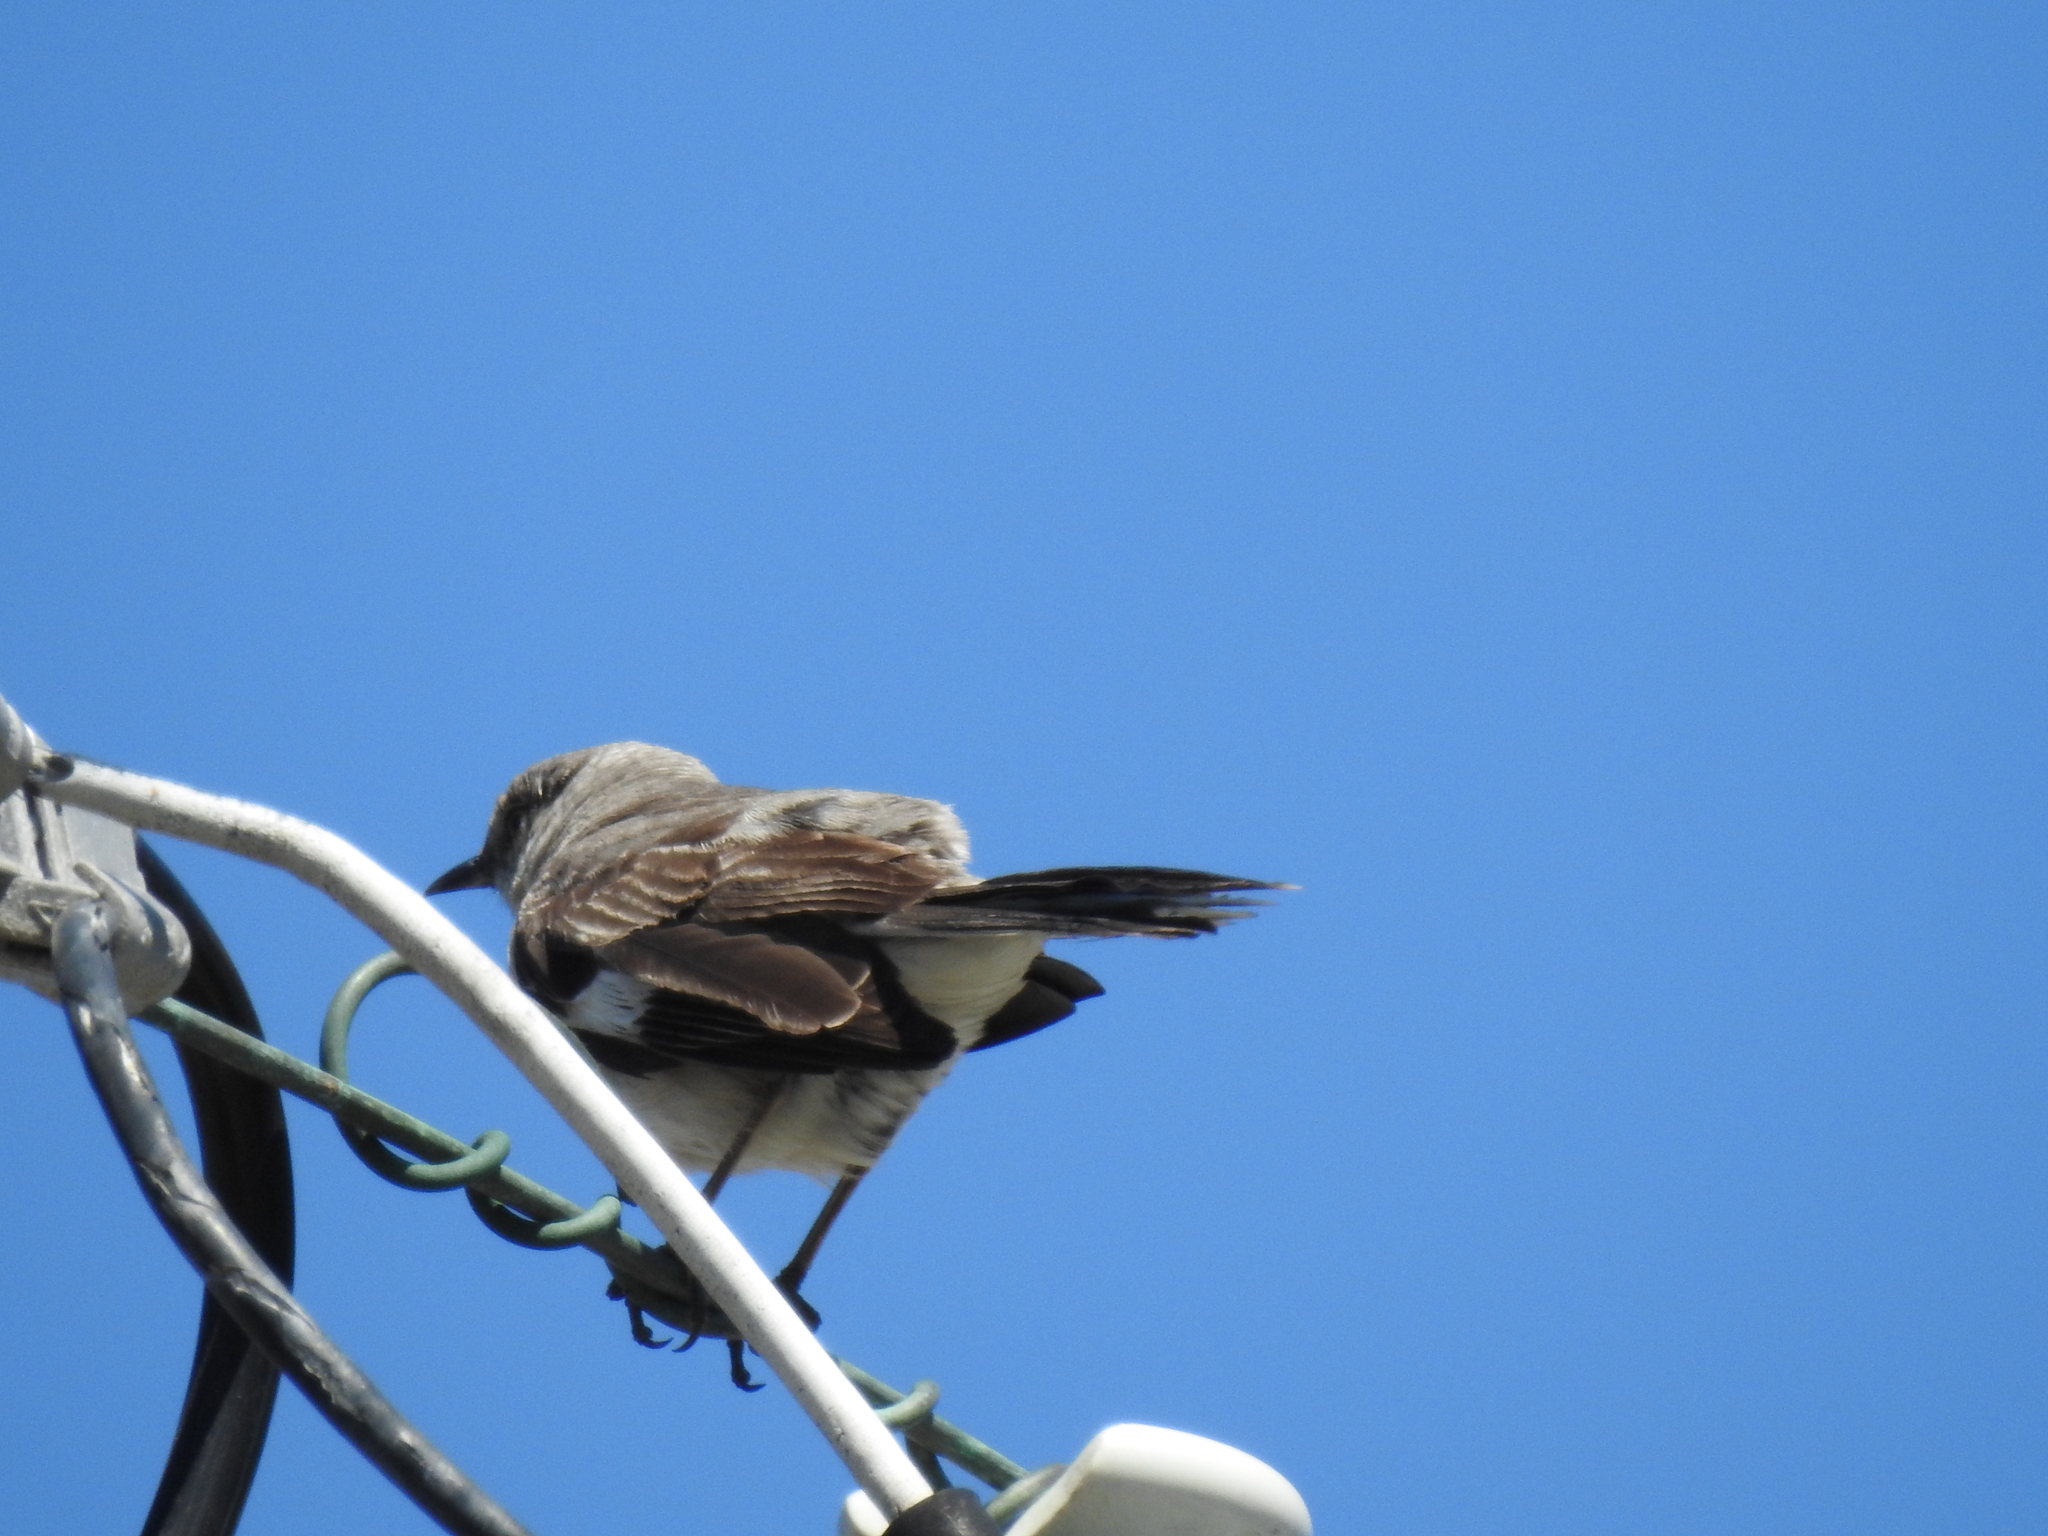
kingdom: Animalia
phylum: Chordata
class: Aves
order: Passeriformes
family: Mimidae
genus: Mimus
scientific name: Mimus polyglottos
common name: Northern mockingbird
